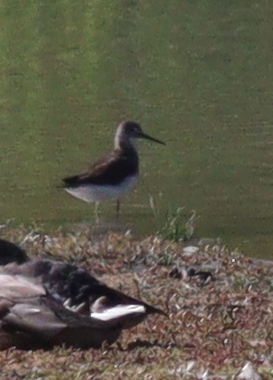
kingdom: Animalia
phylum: Chordata
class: Aves
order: Charadriiformes
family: Scolopacidae
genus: Tringa
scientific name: Tringa ochropus
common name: Green sandpiper
